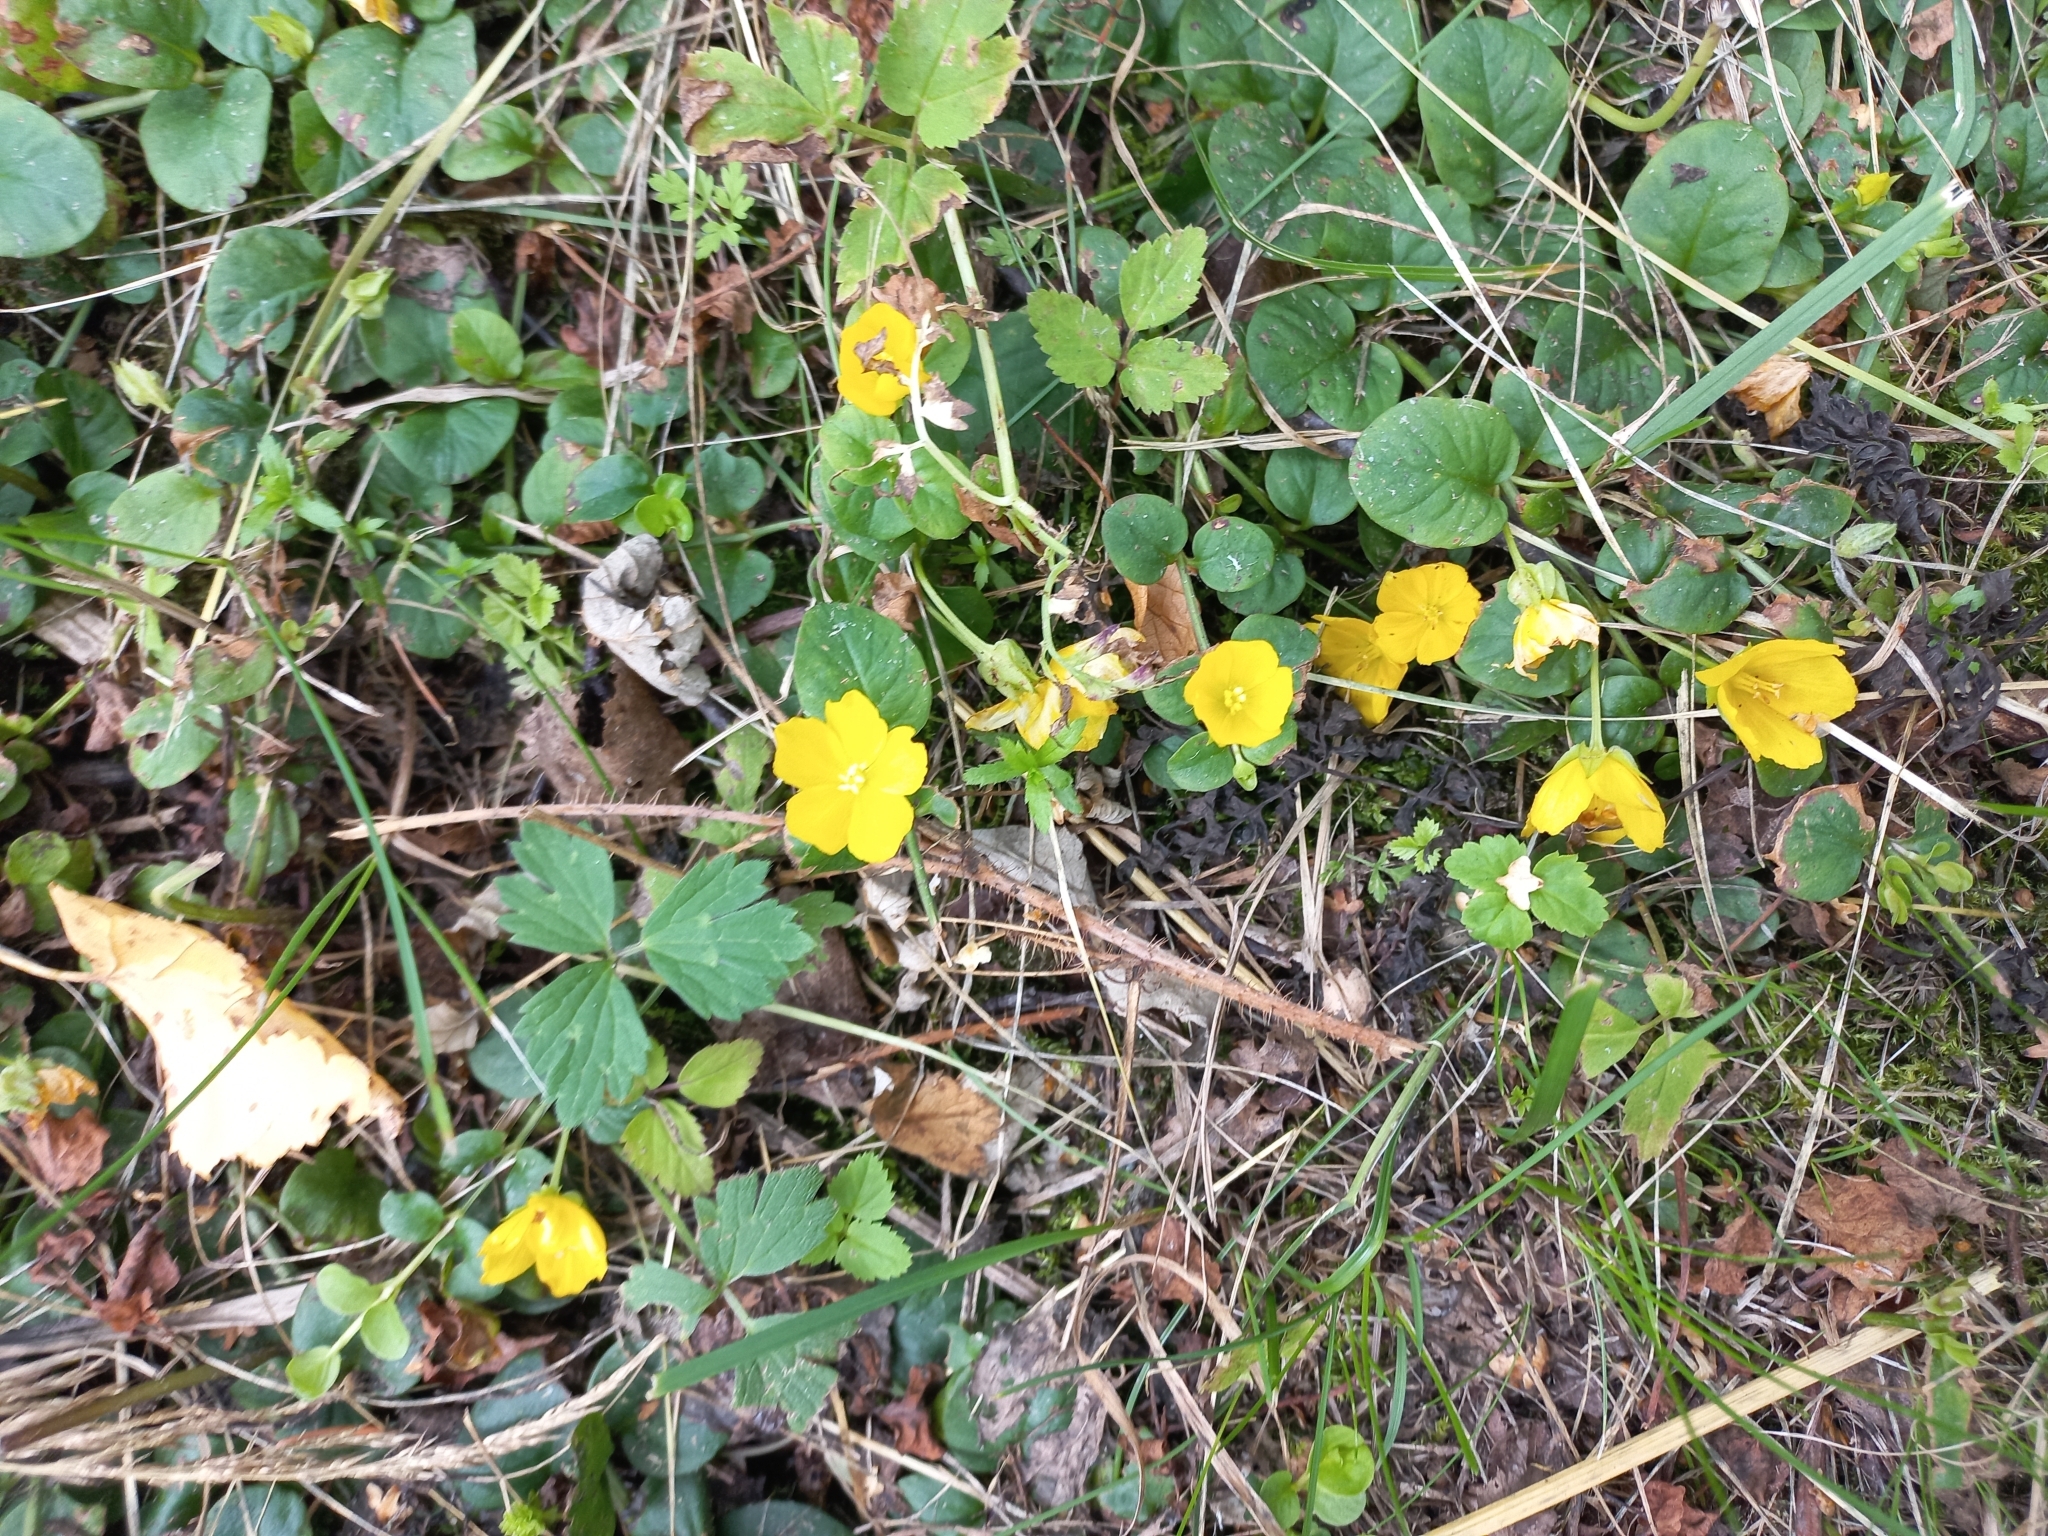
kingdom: Plantae
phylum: Tracheophyta
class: Magnoliopsida
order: Ericales
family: Primulaceae
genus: Lysimachia
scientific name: Lysimachia nummularia
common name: Moneywort
